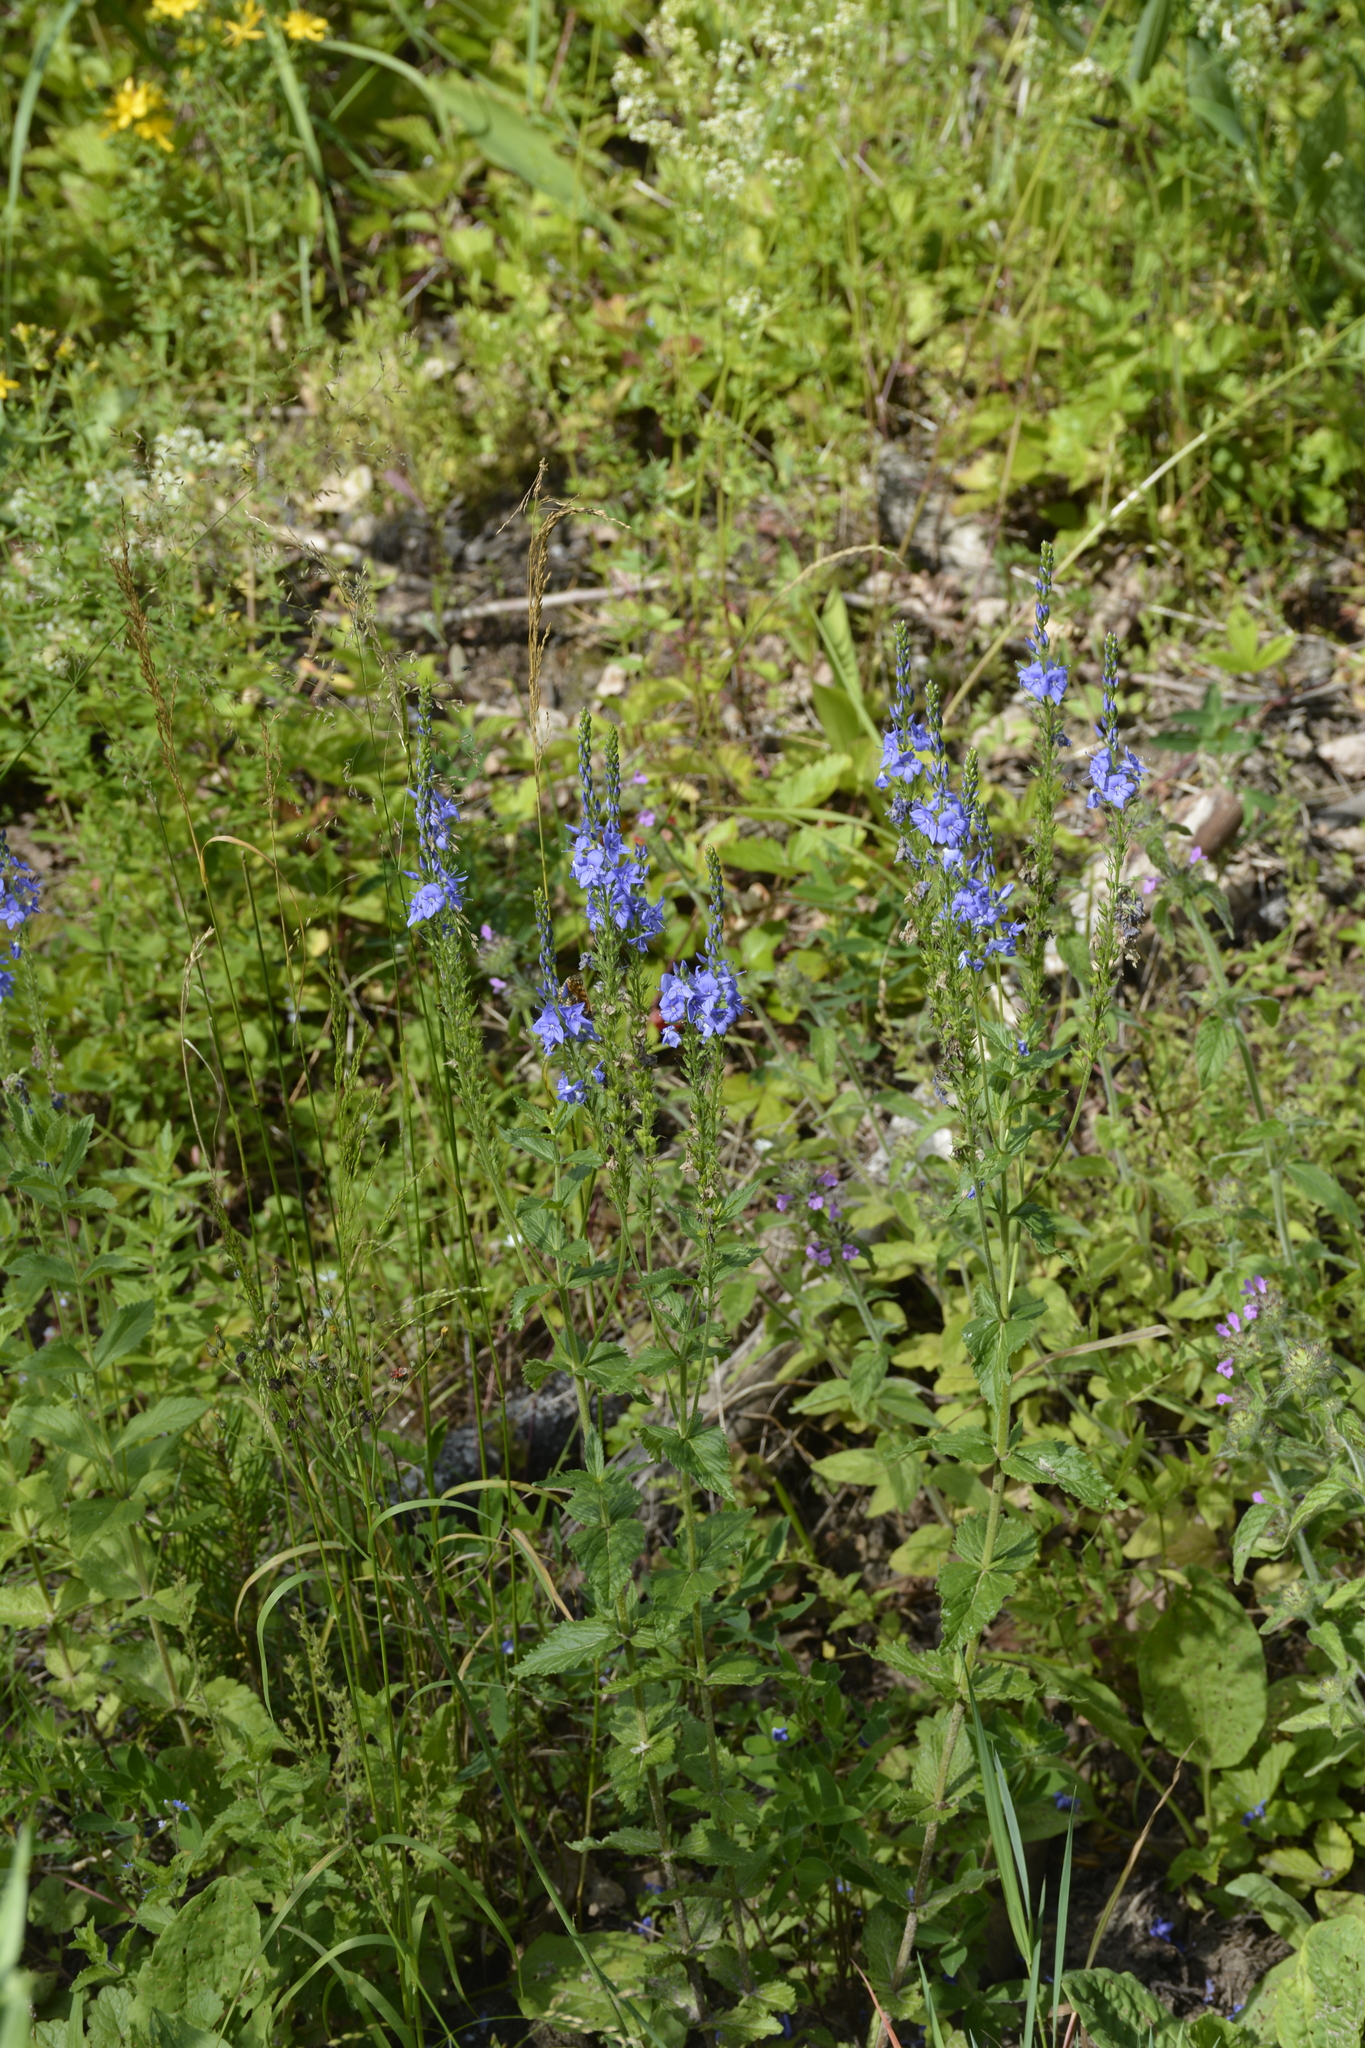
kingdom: Plantae
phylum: Tracheophyta
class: Magnoliopsida
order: Lamiales
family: Plantaginaceae
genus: Veronica
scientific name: Veronica teucrium
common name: Large speedwell
